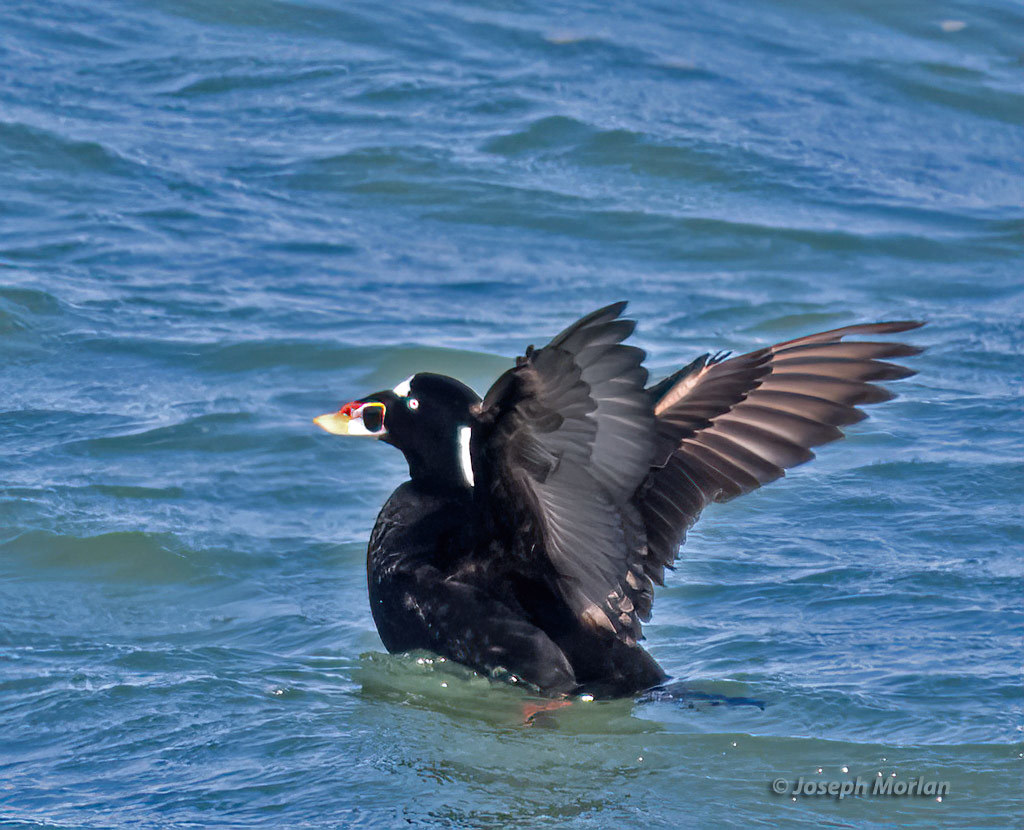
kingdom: Animalia
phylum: Chordata
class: Aves
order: Anseriformes
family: Anatidae
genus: Melanitta
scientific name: Melanitta perspicillata
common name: Surf scoter
